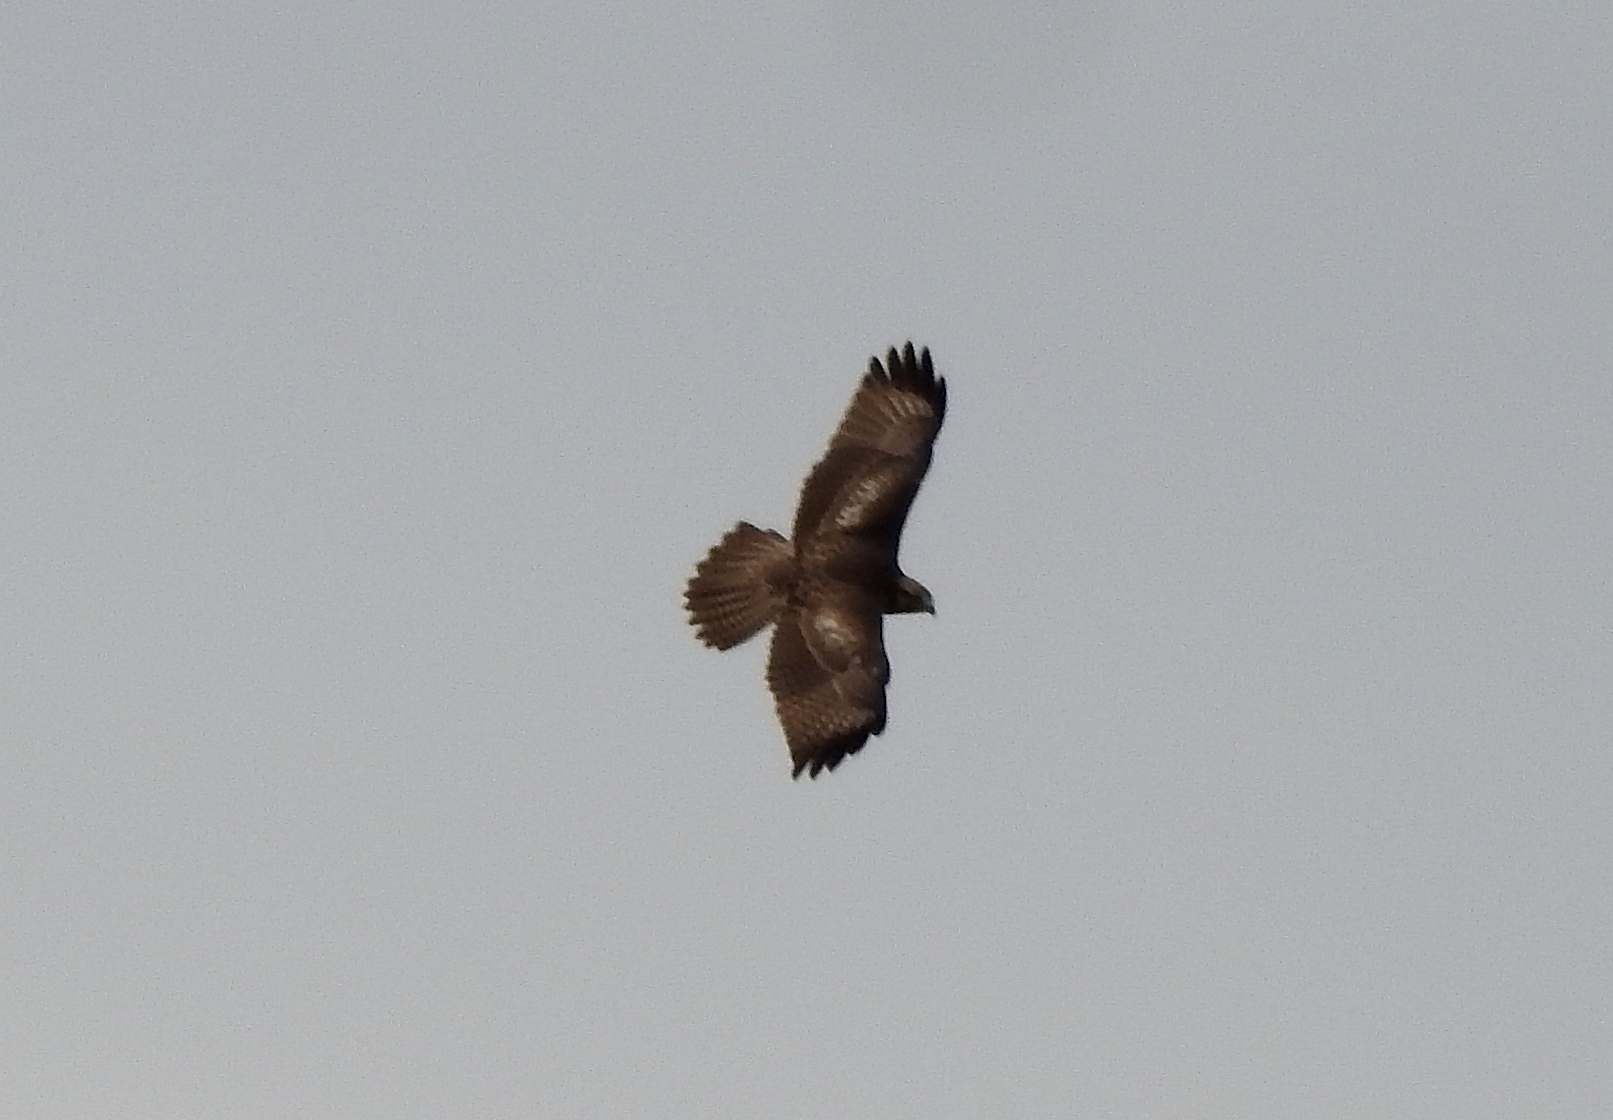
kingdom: Animalia
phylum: Chordata
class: Aves
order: Accipitriformes
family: Accipitridae
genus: Buteo
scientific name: Buteo japonicus
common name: Eastern buzzard
